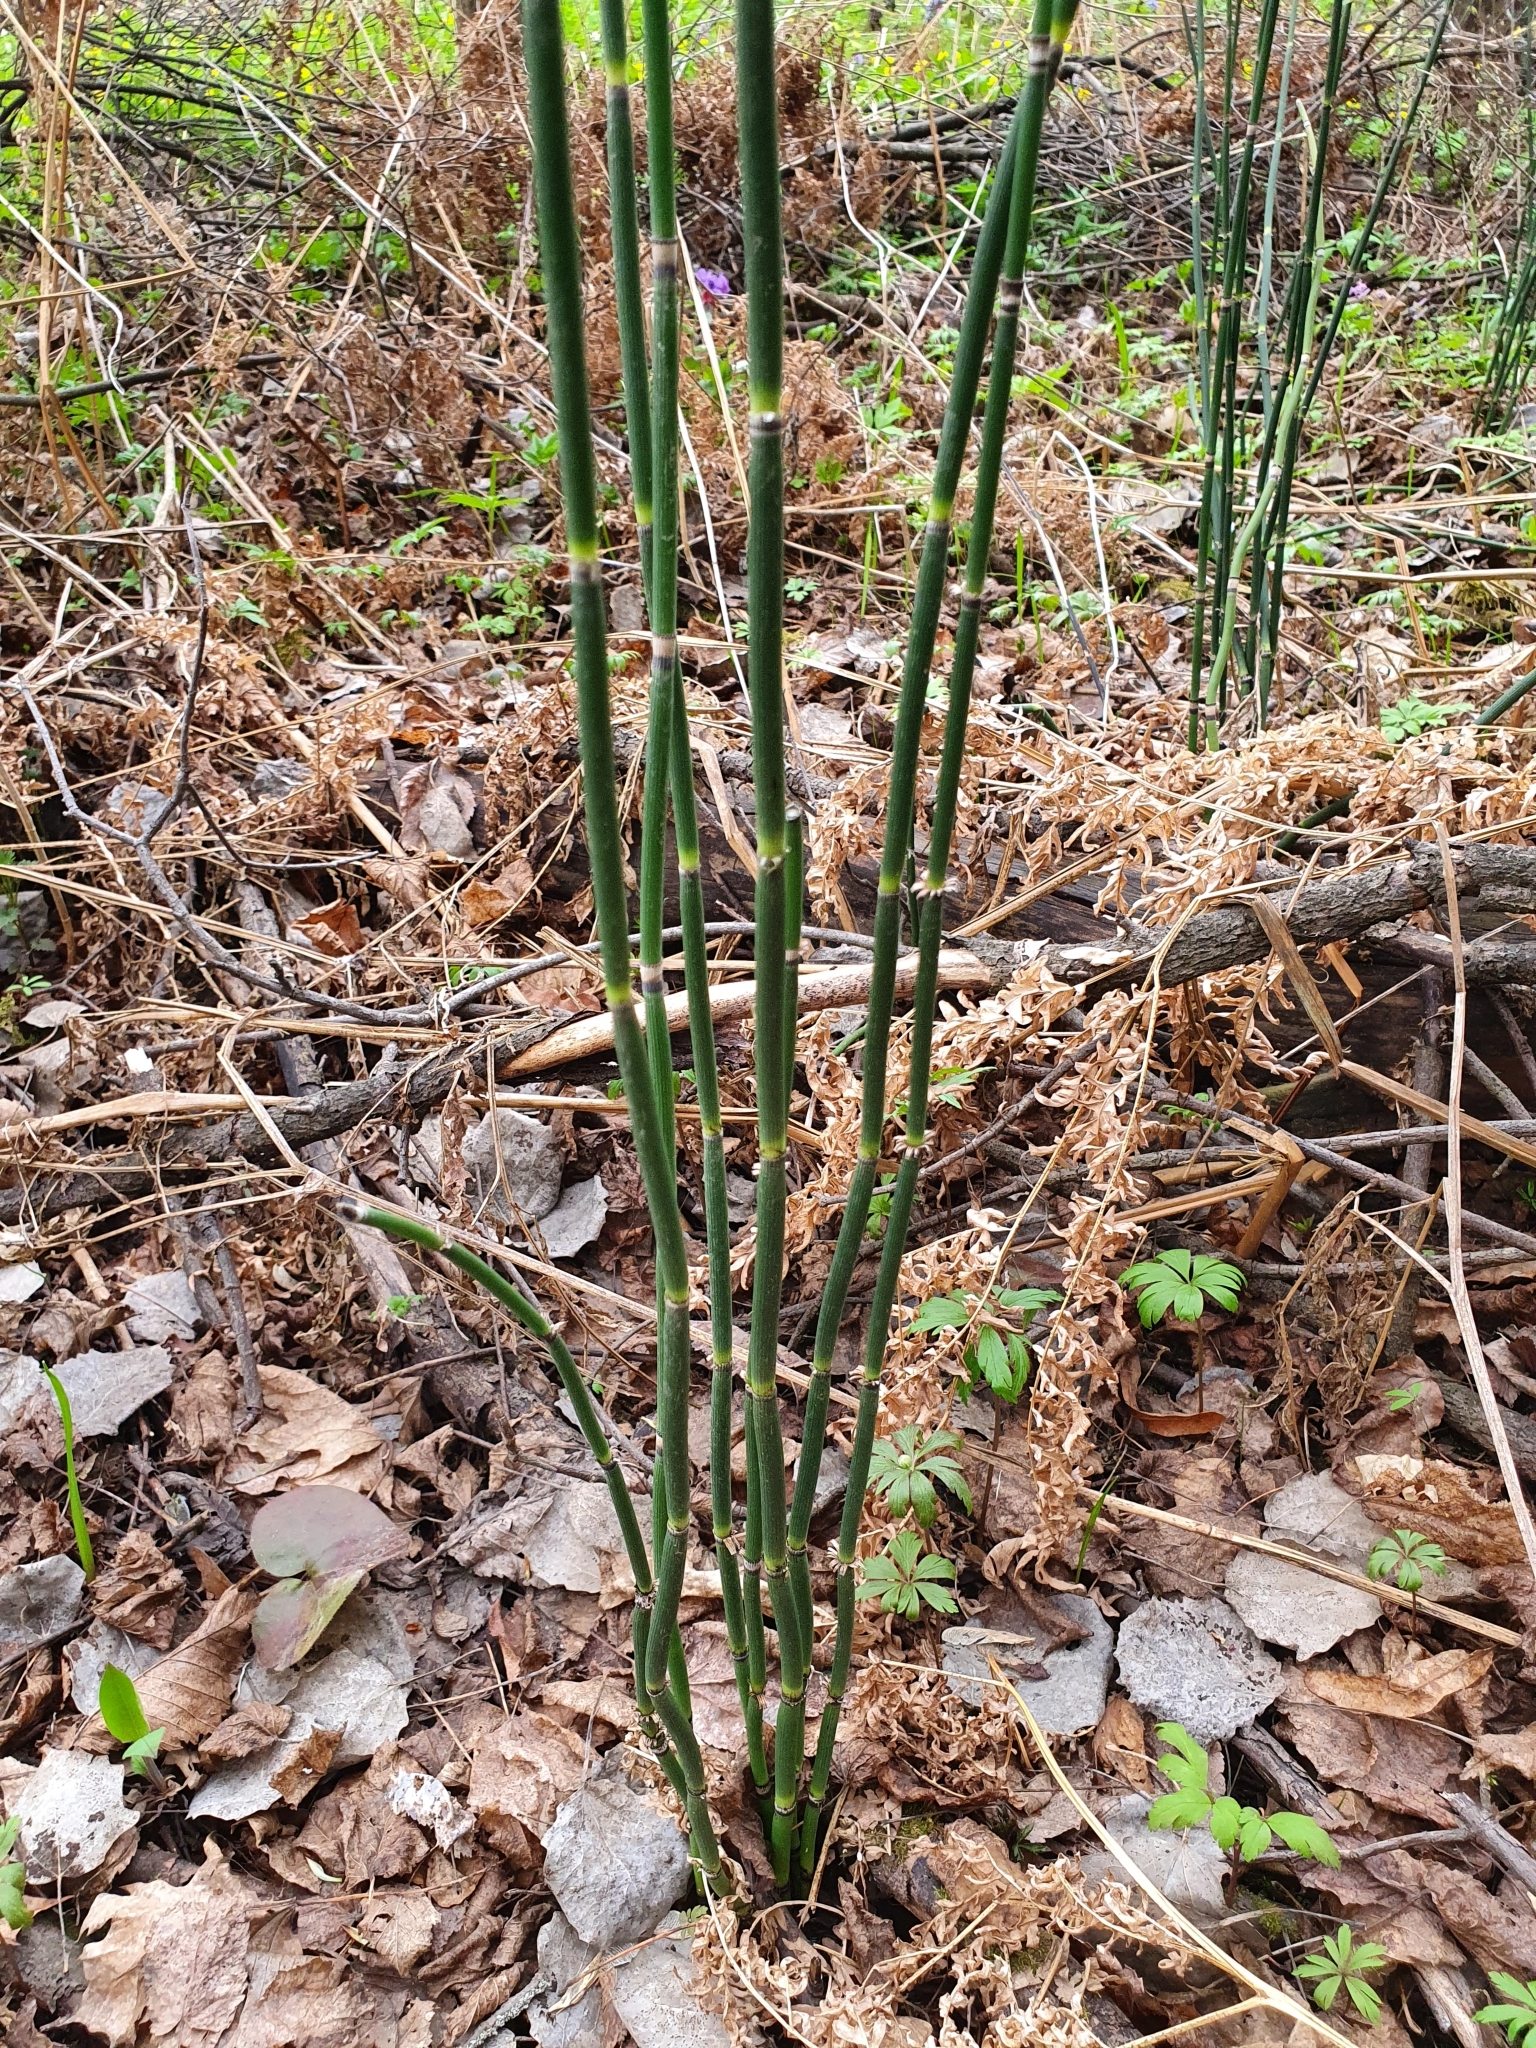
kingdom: Plantae
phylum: Tracheophyta
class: Polypodiopsida
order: Equisetales
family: Equisetaceae
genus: Equisetum
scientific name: Equisetum hyemale
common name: Rough horsetail
